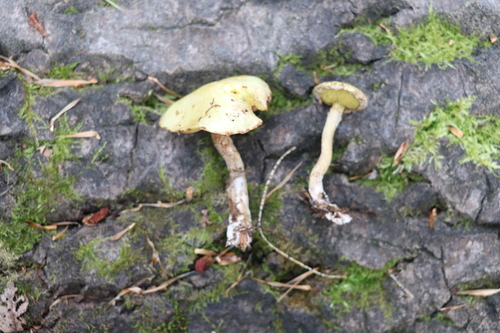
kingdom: Fungi
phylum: Basidiomycota
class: Agaricomycetes
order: Boletales
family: Suillaceae
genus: Suillus
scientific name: Suillus americanus
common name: Chicken fat mushroom
